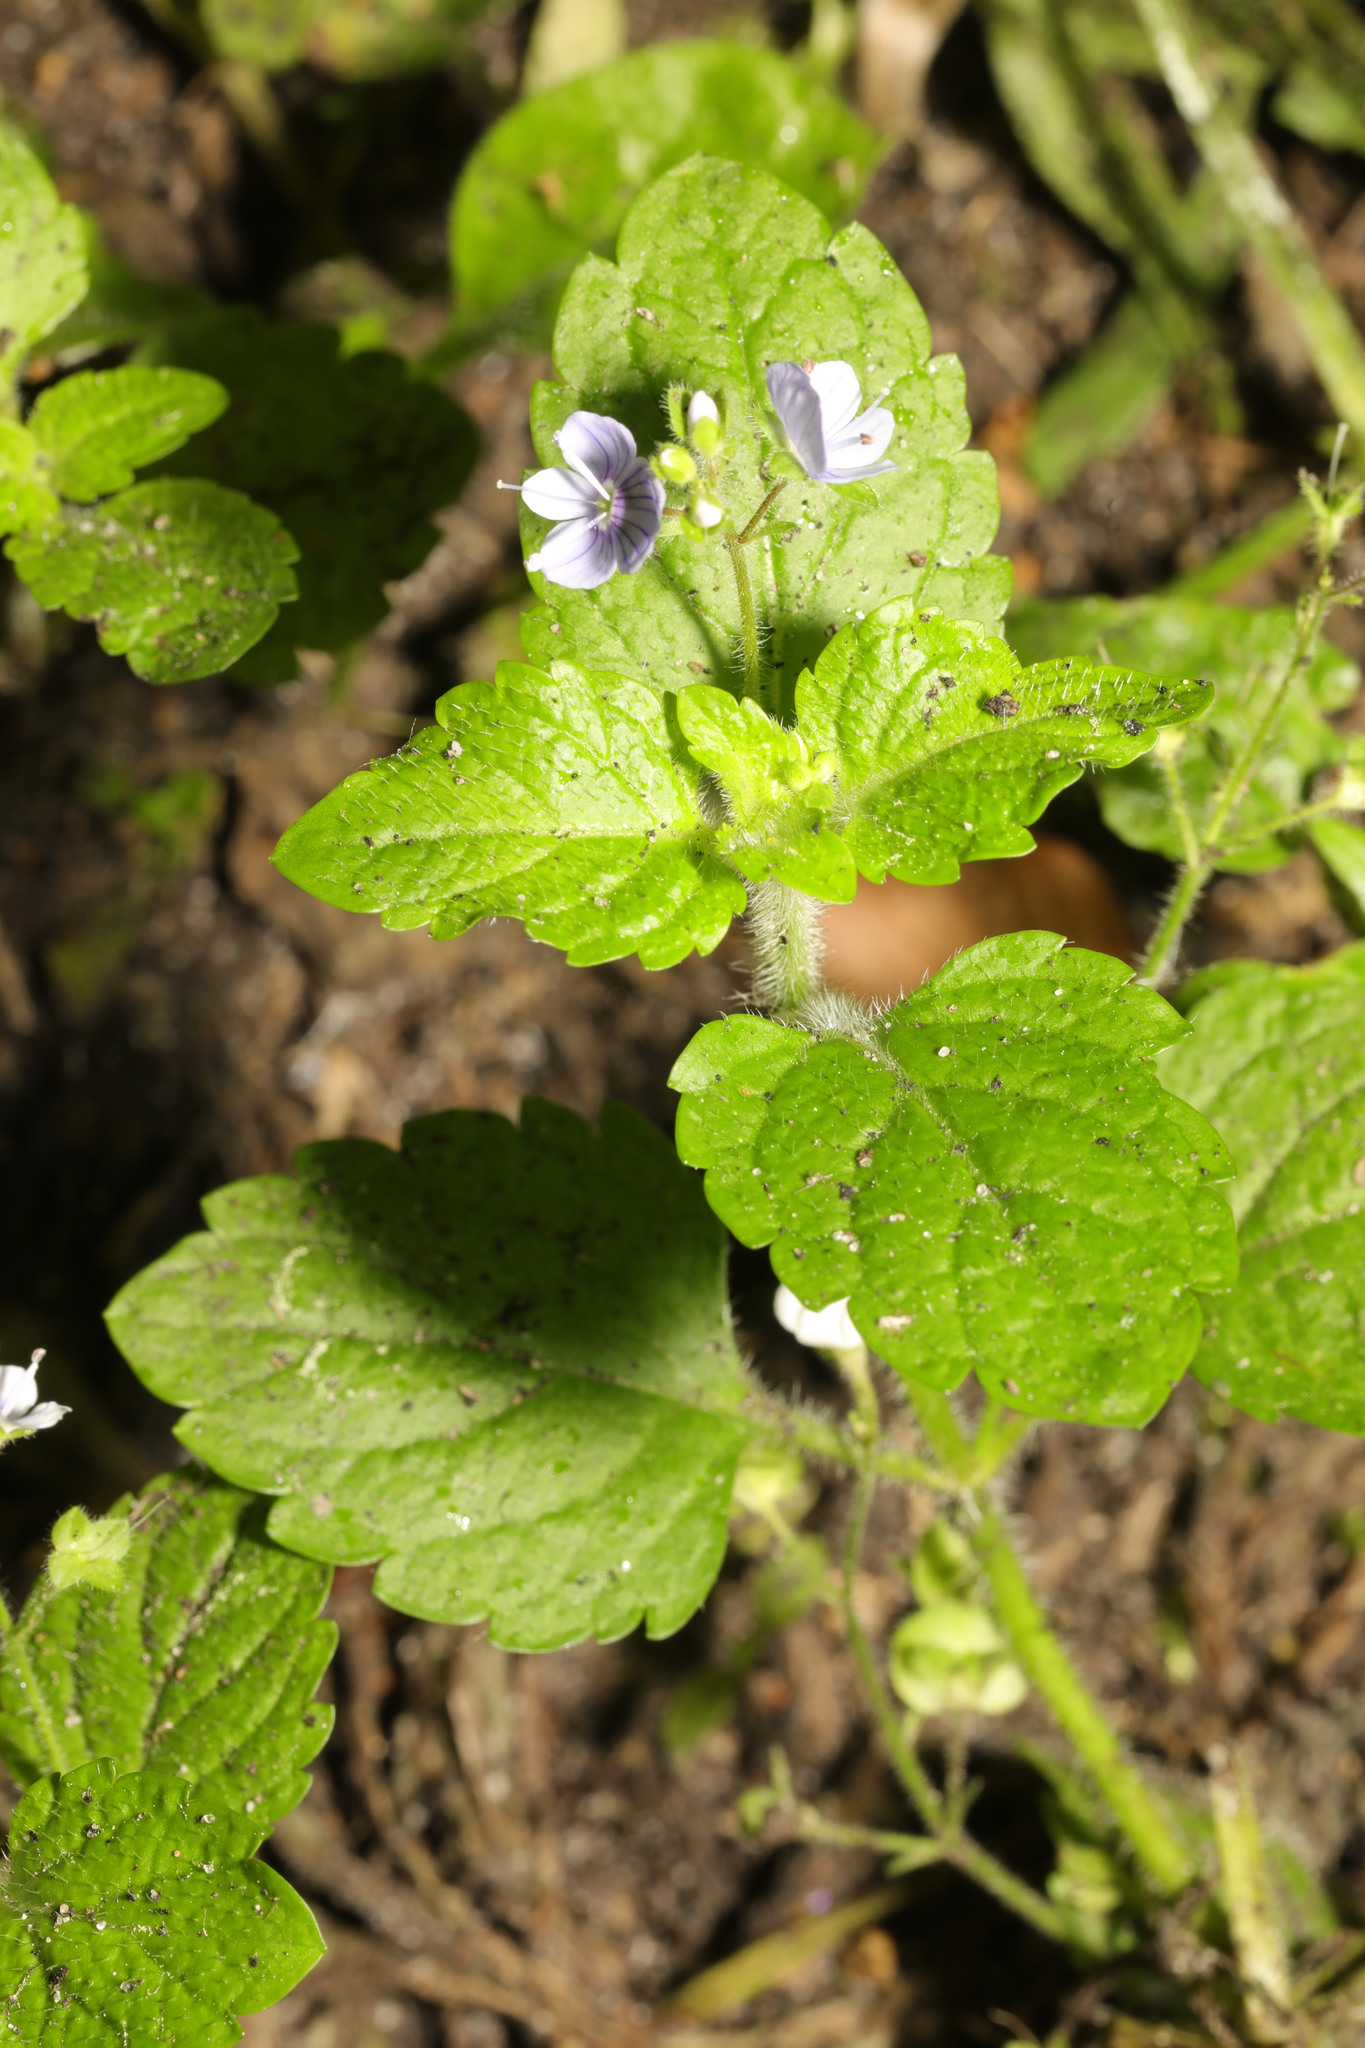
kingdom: Plantae
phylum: Tracheophyta
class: Magnoliopsida
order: Lamiales
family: Plantaginaceae
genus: Veronica
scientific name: Veronica montana
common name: Wood speedwell
